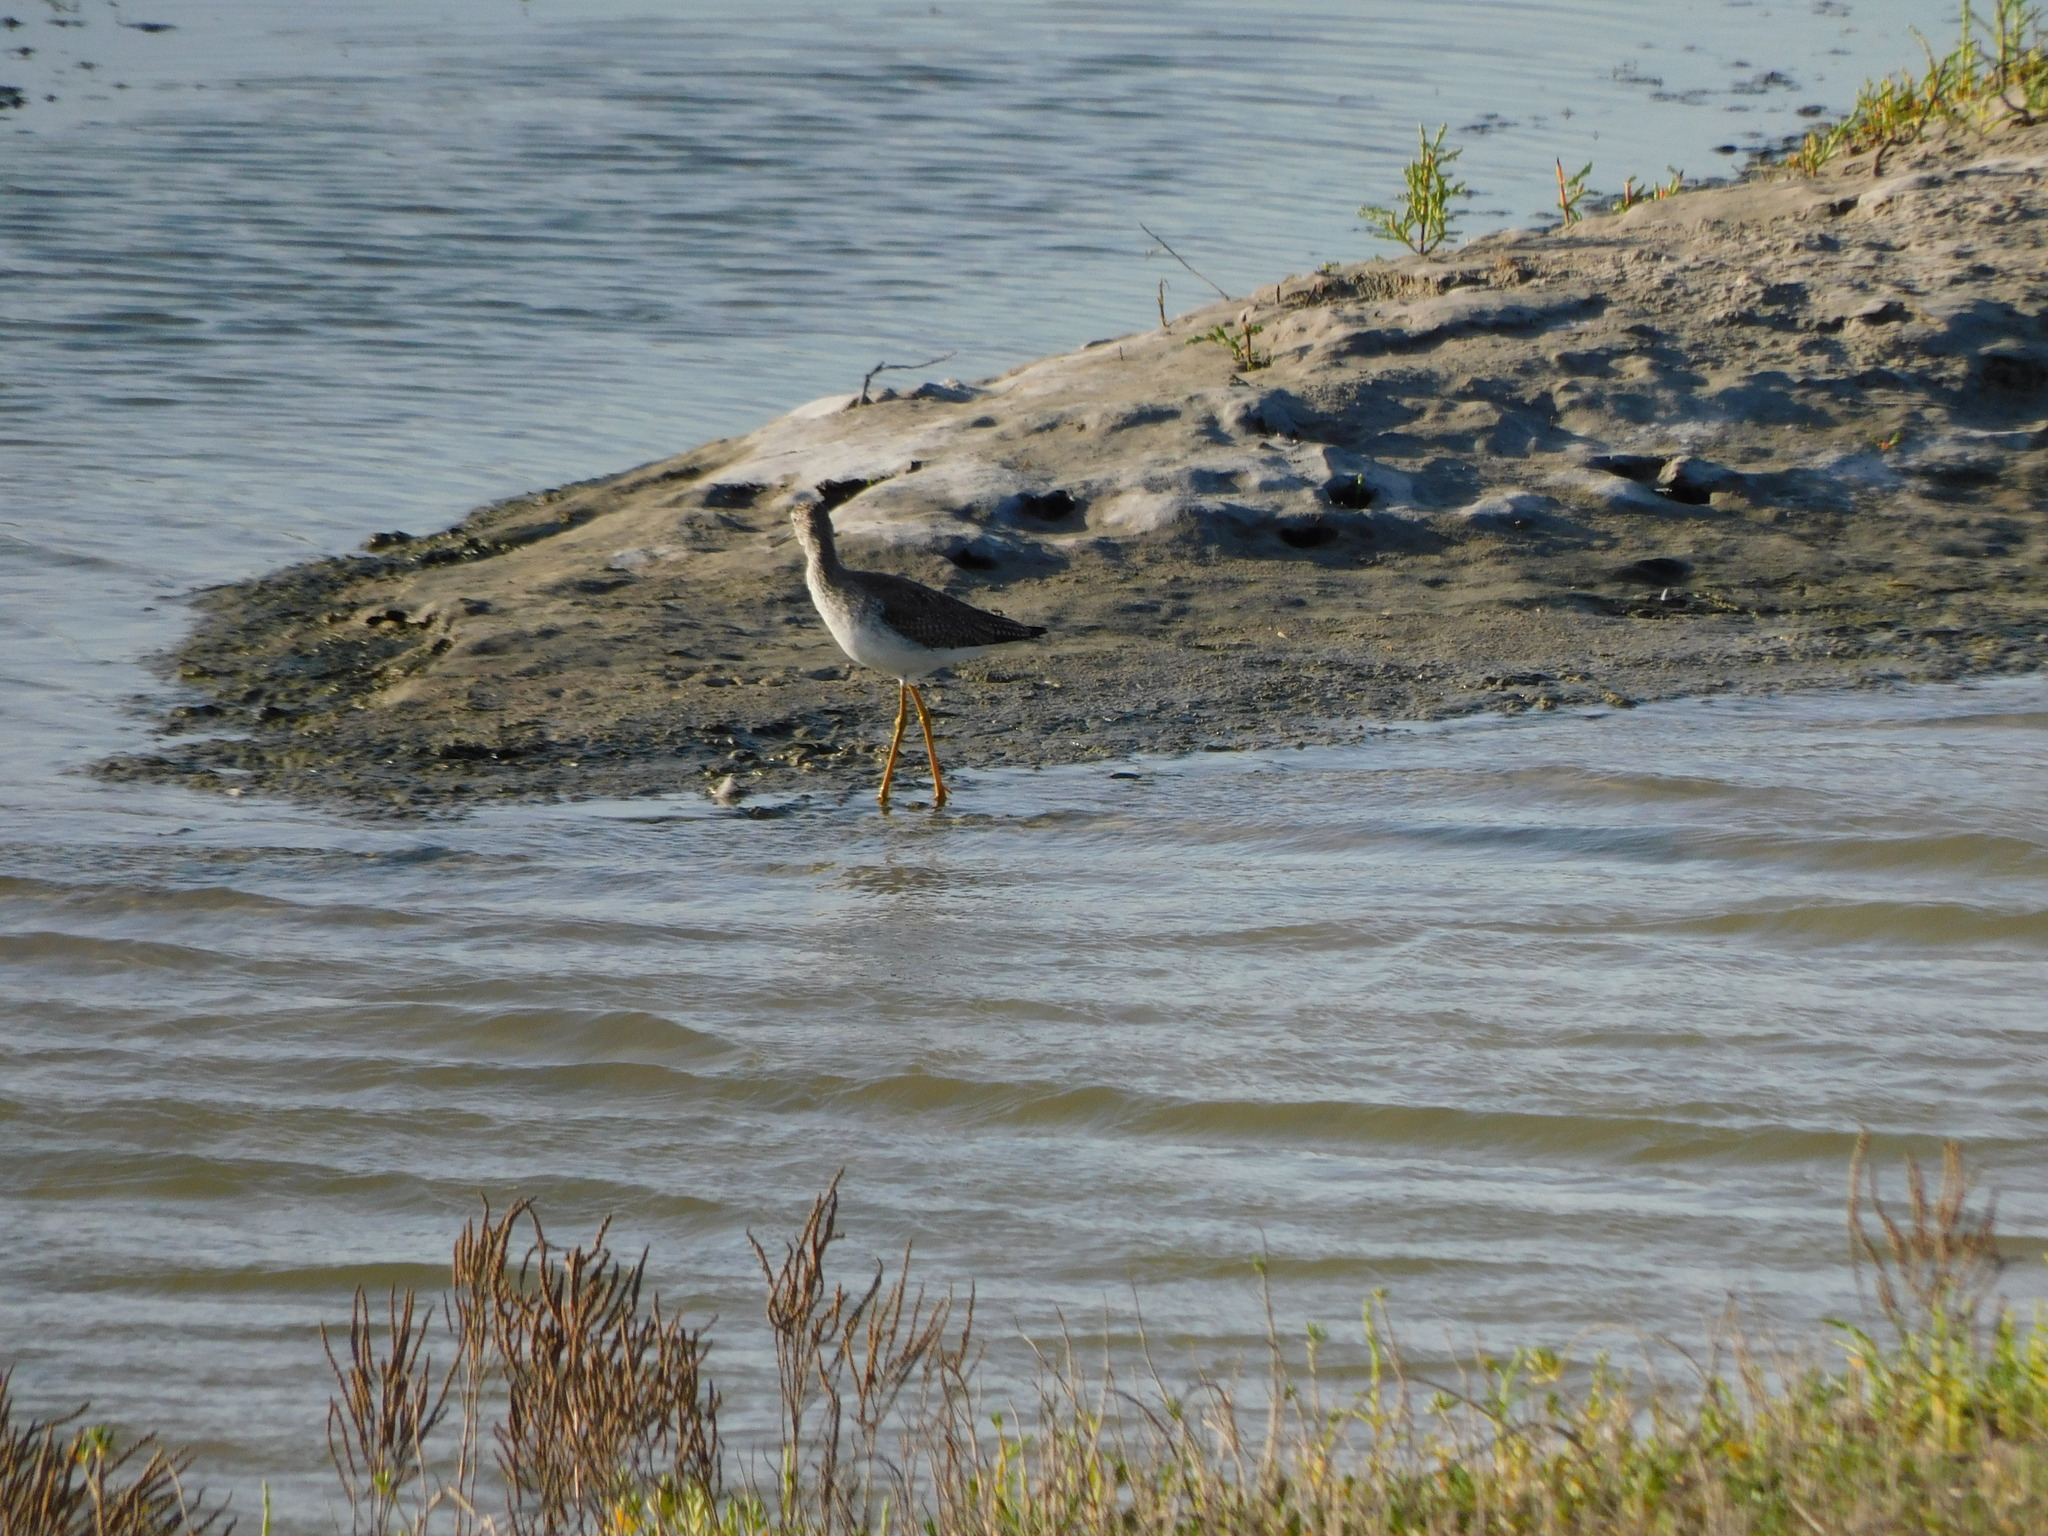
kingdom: Animalia
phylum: Chordata
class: Aves
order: Charadriiformes
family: Scolopacidae
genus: Tringa
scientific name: Tringa melanoleuca
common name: Greater yellowlegs
